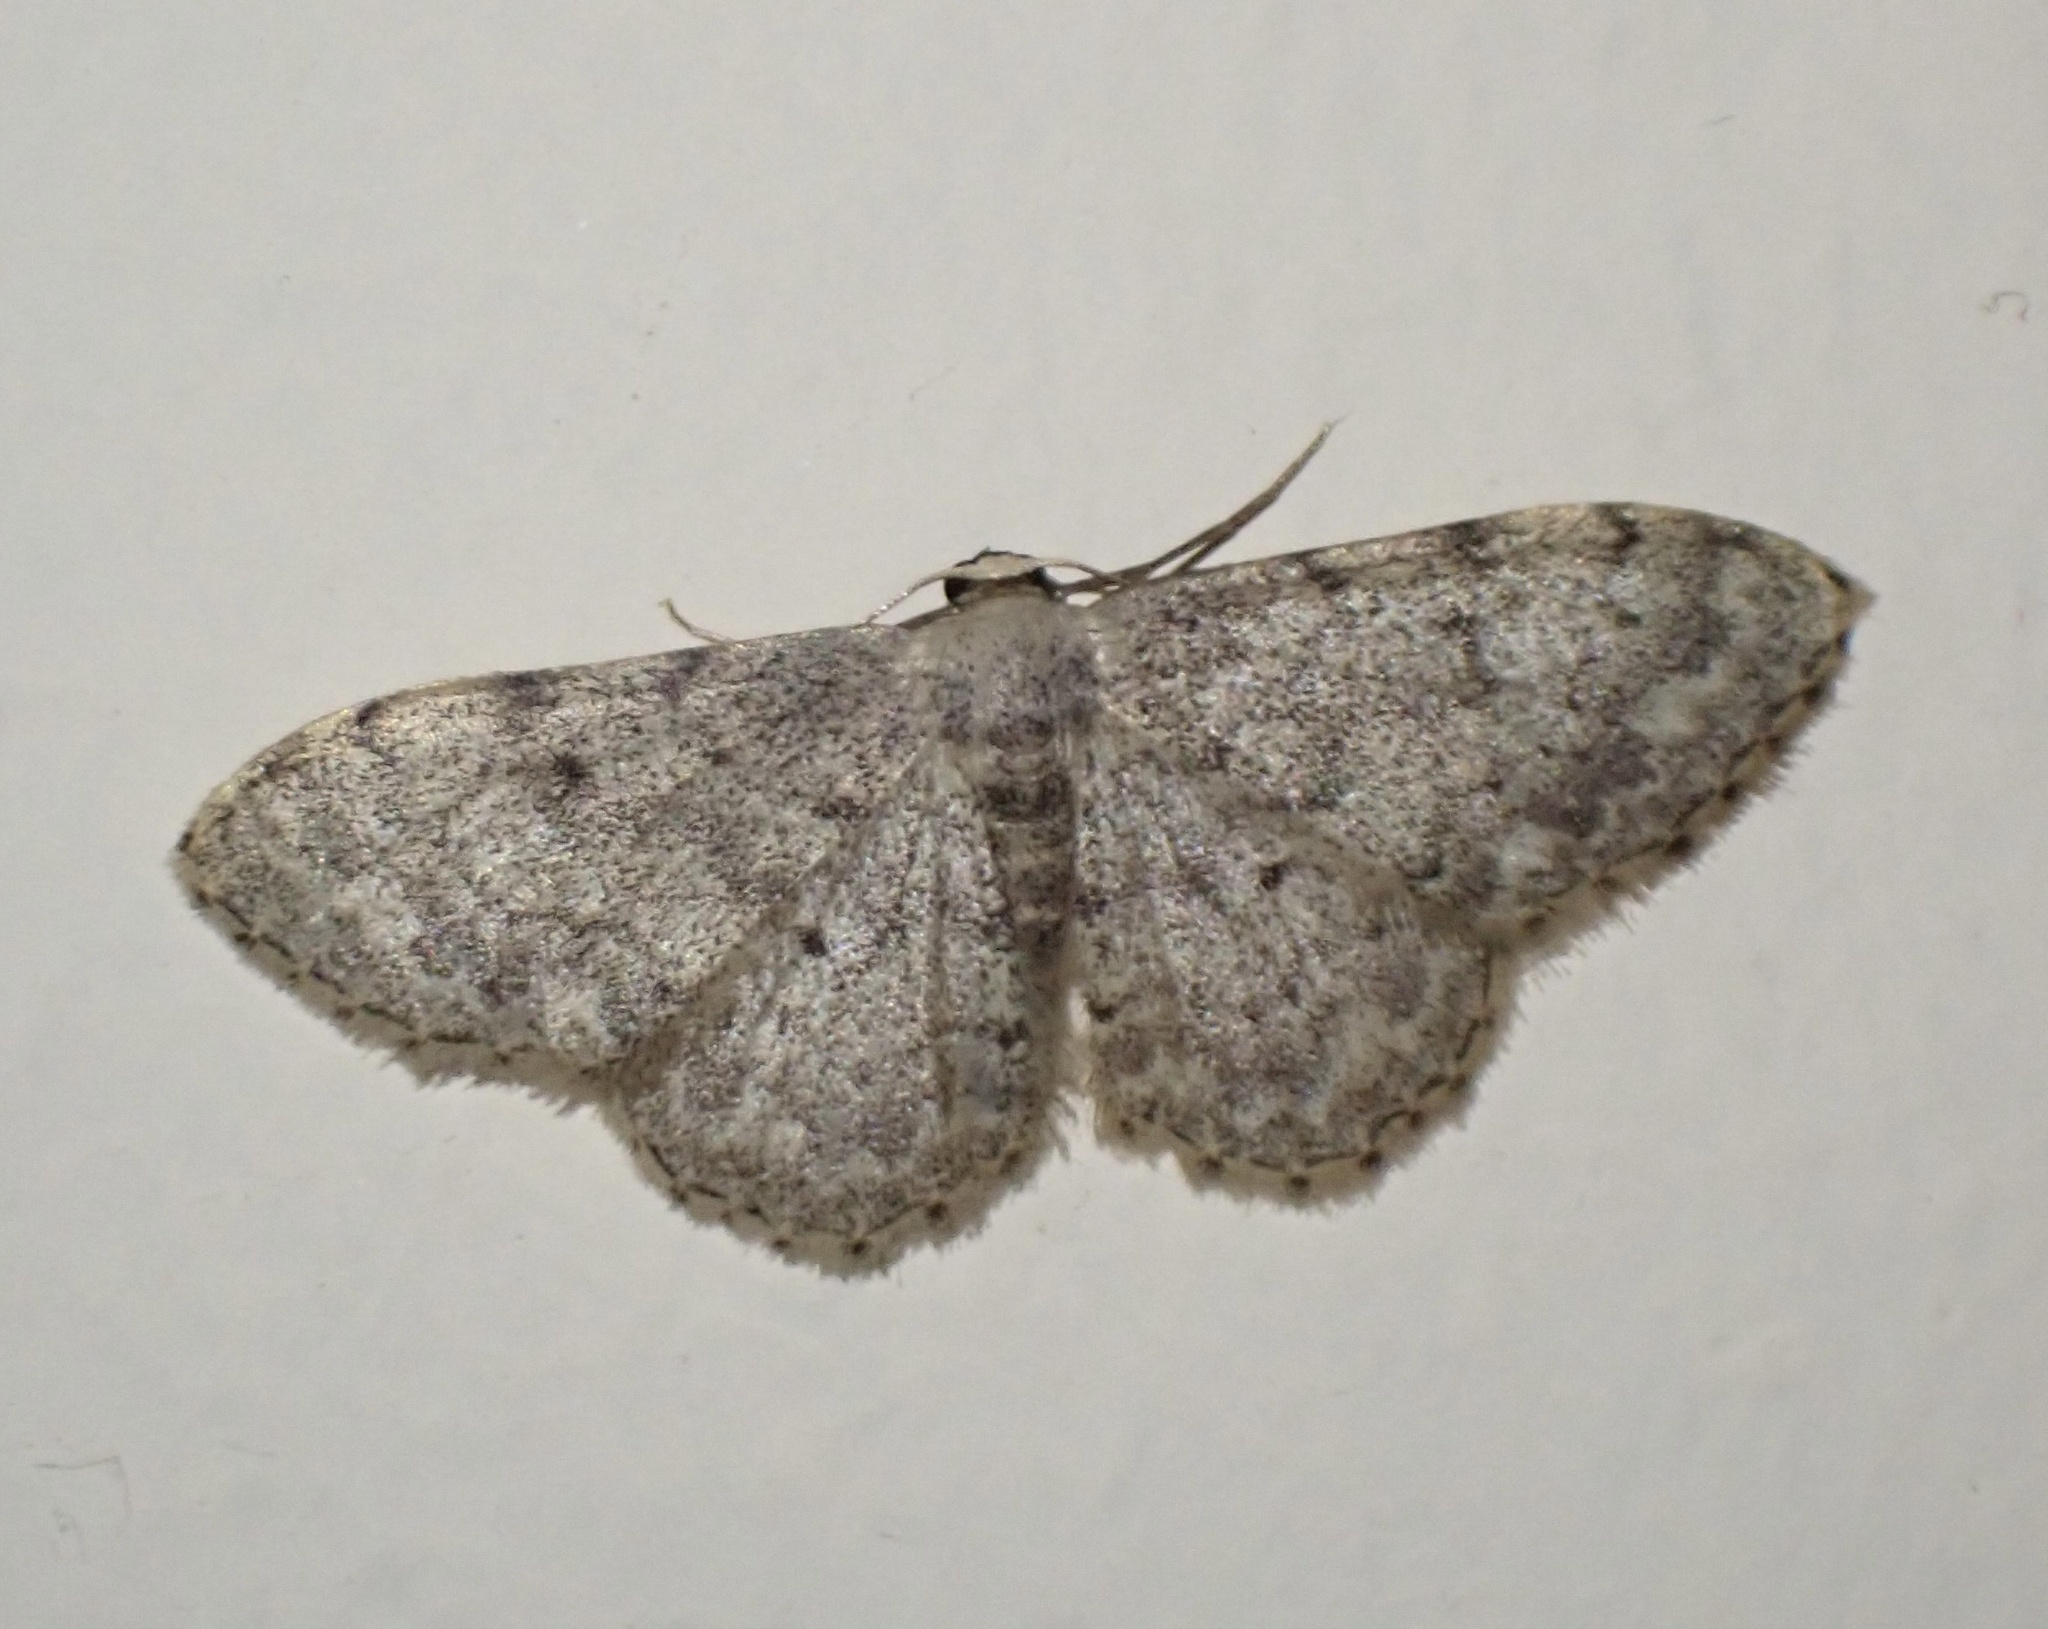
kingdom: Animalia
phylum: Arthropoda
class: Insecta
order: Lepidoptera
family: Geometridae
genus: Idaea
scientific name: Idaea consolidata
